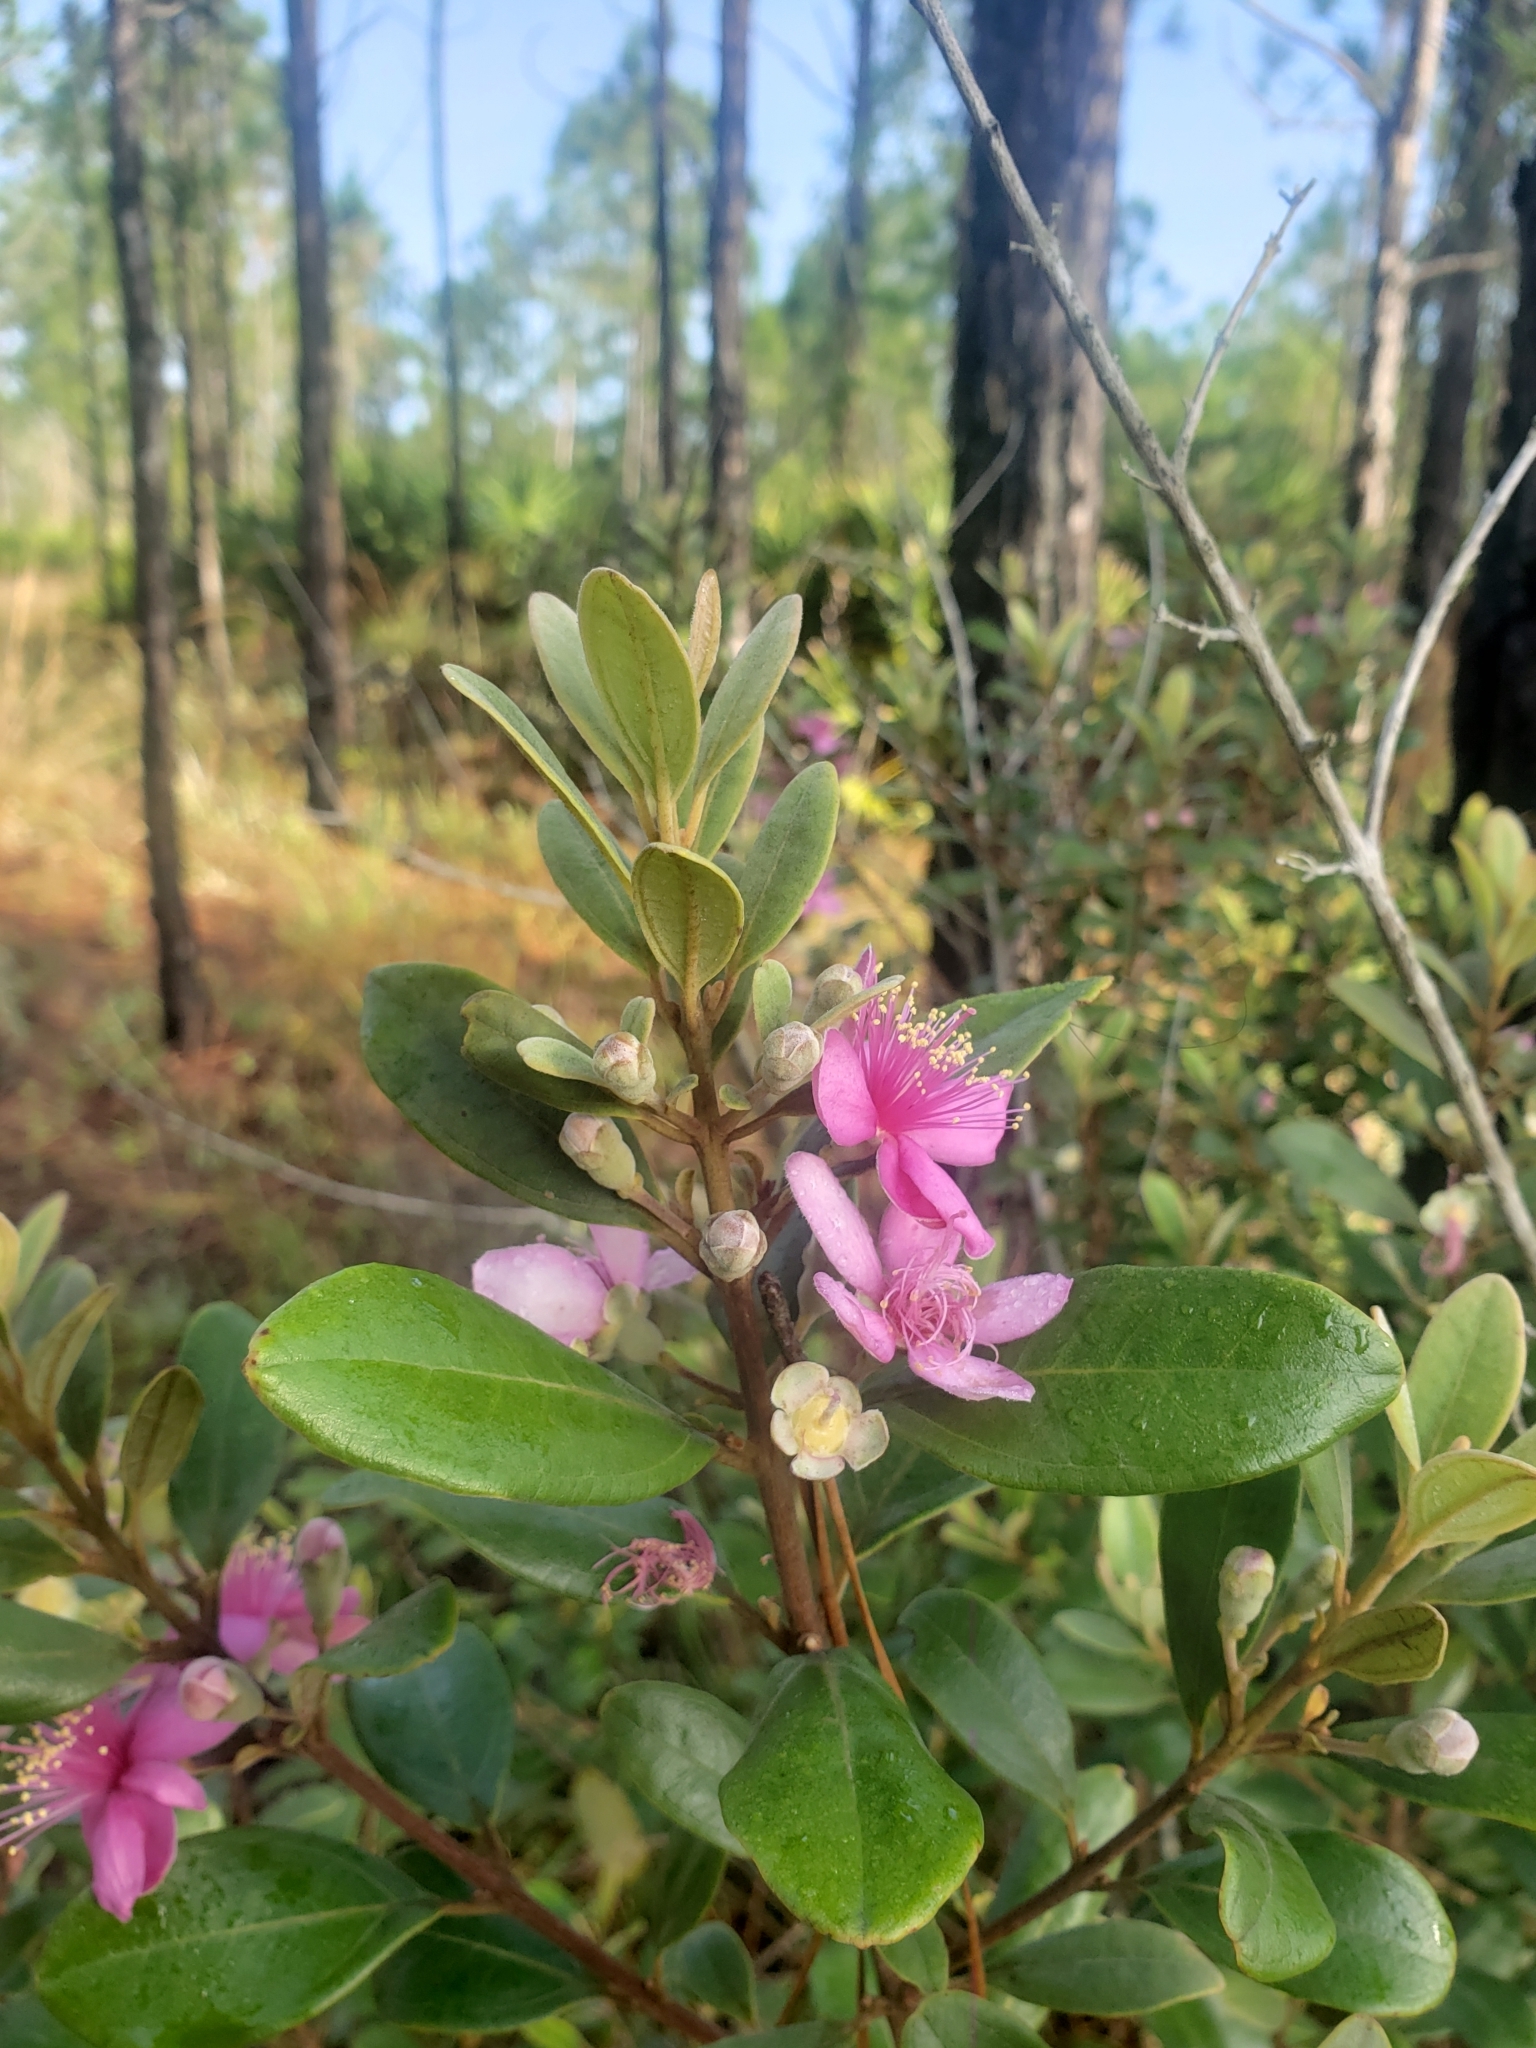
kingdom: Plantae
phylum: Tracheophyta
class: Magnoliopsida
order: Myrtales
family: Myrtaceae
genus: Rhodomyrtus
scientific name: Rhodomyrtus tomentosa
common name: Rose myrtle
